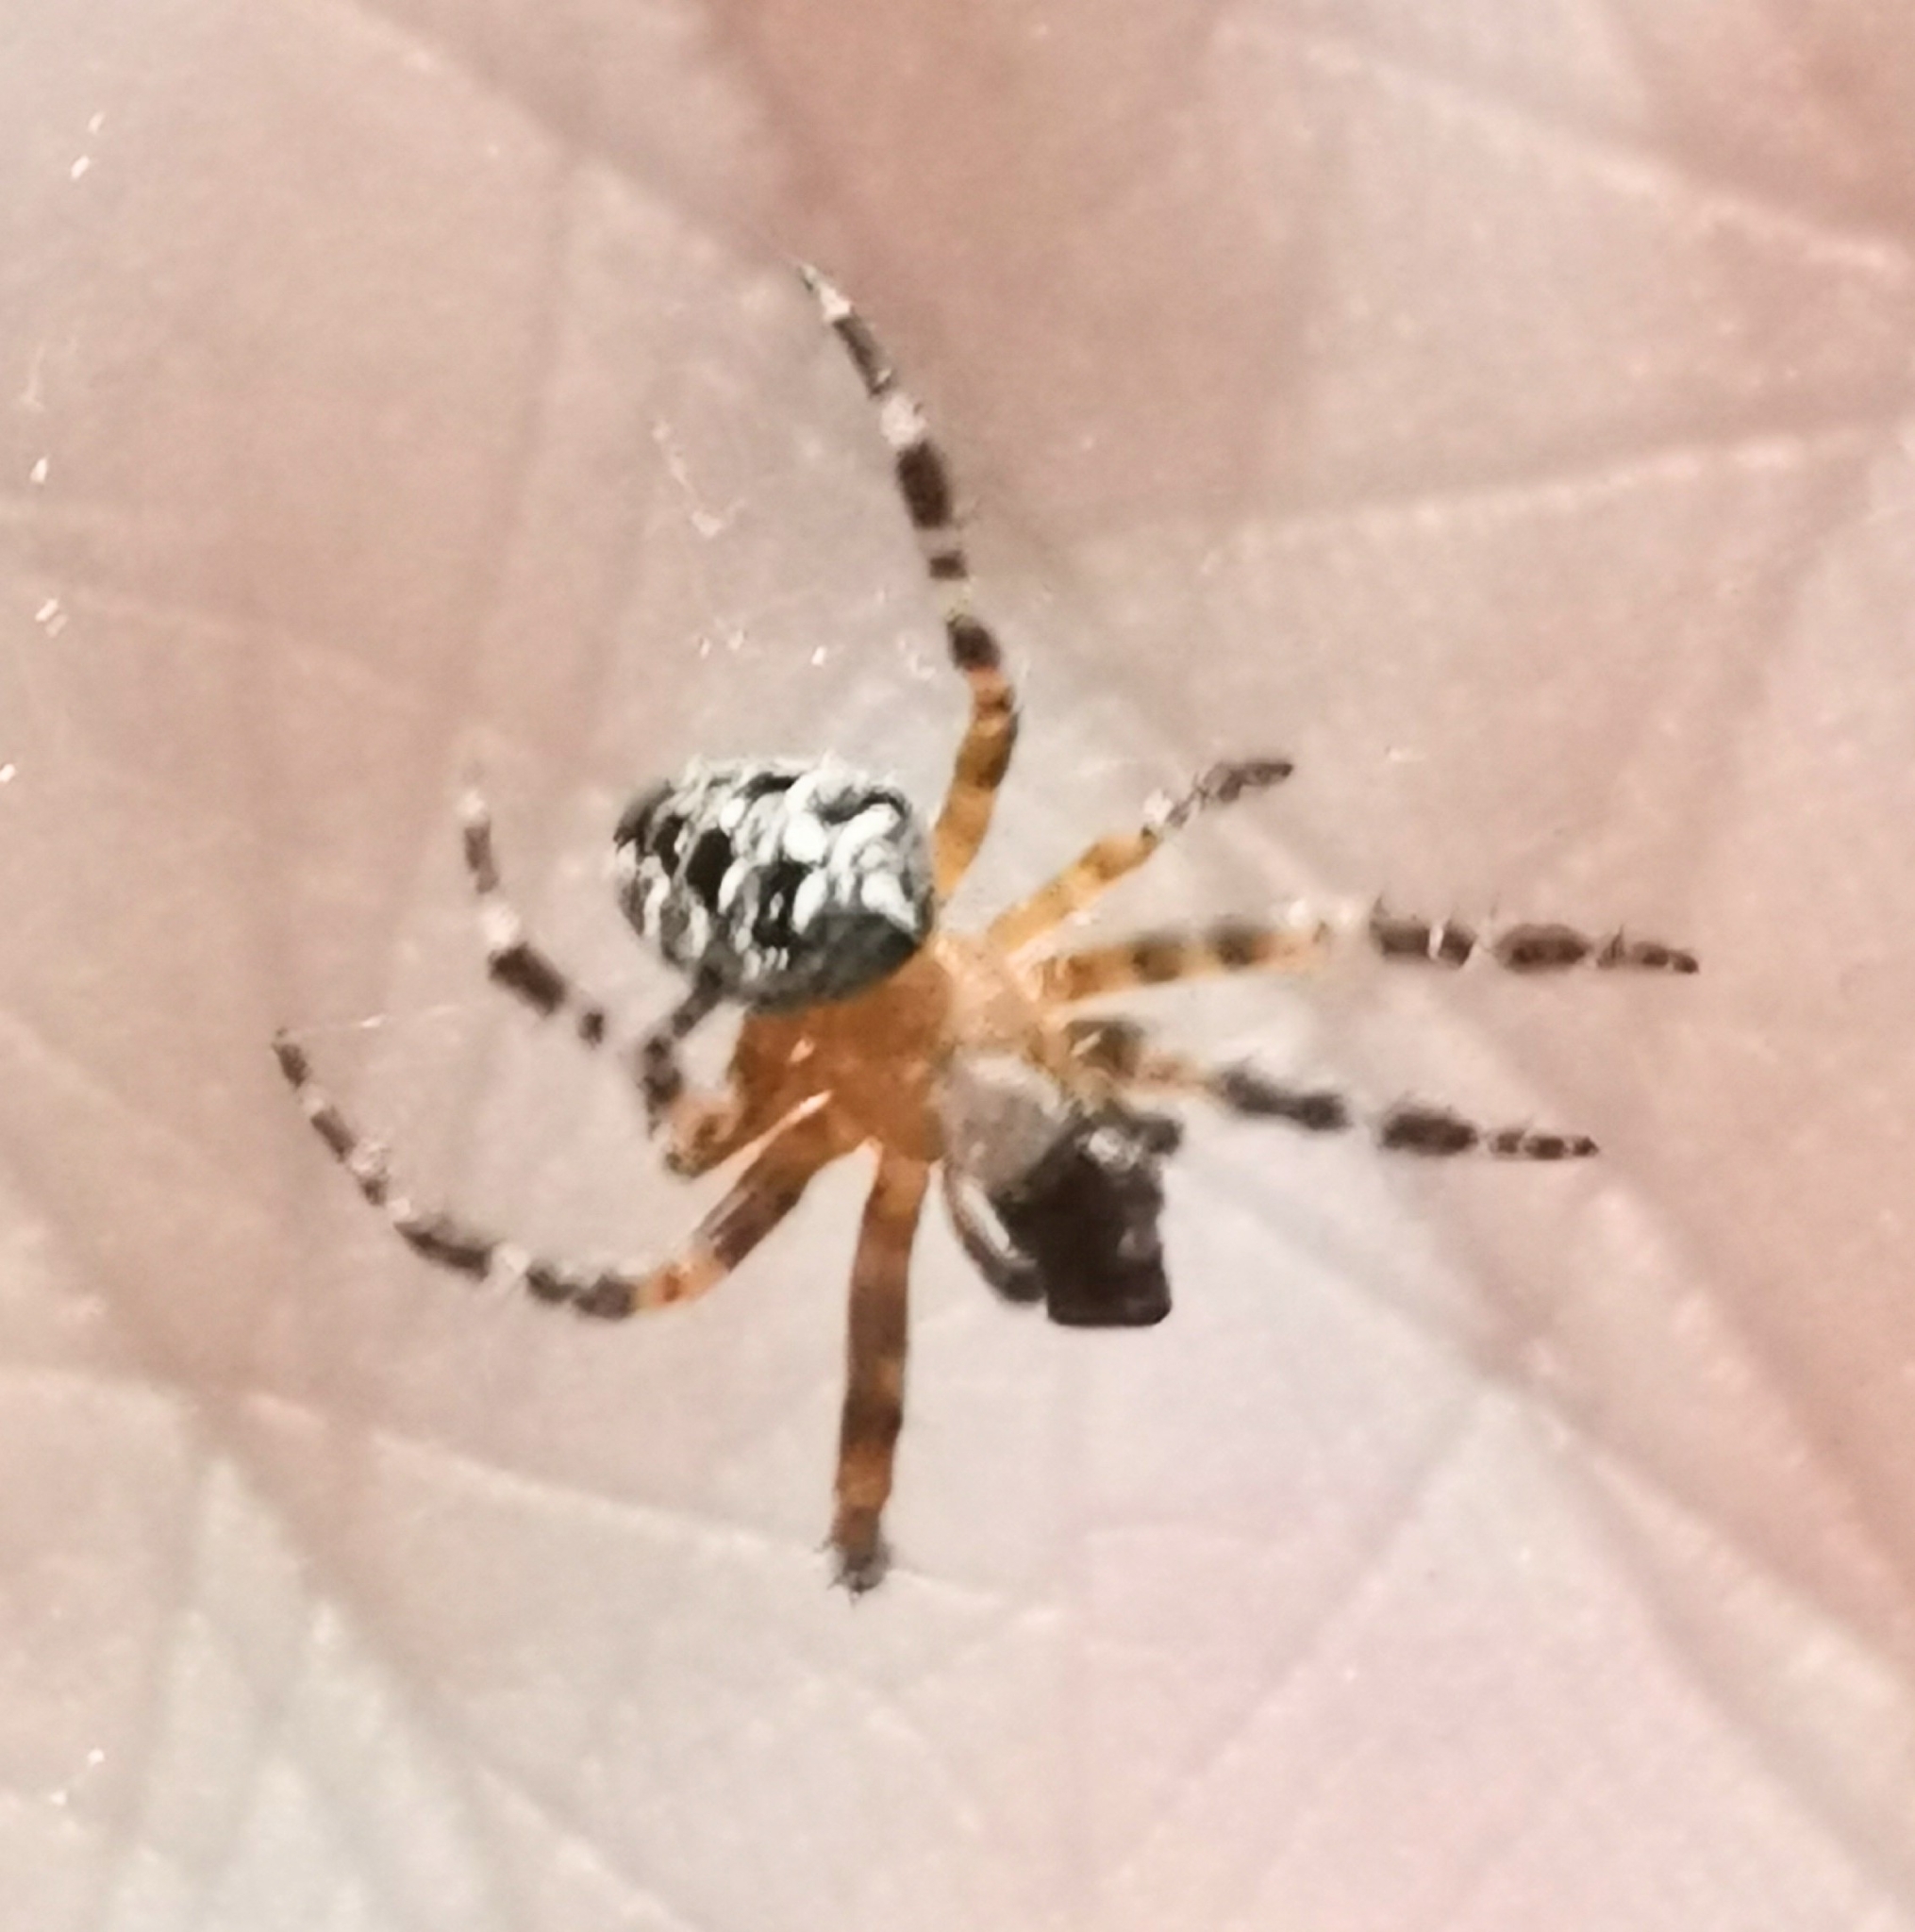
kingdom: Animalia
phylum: Arthropoda
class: Arachnida
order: Araneae
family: Araneidae
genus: Araneus
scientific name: Araneus diadematus
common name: Cross orbweaver
